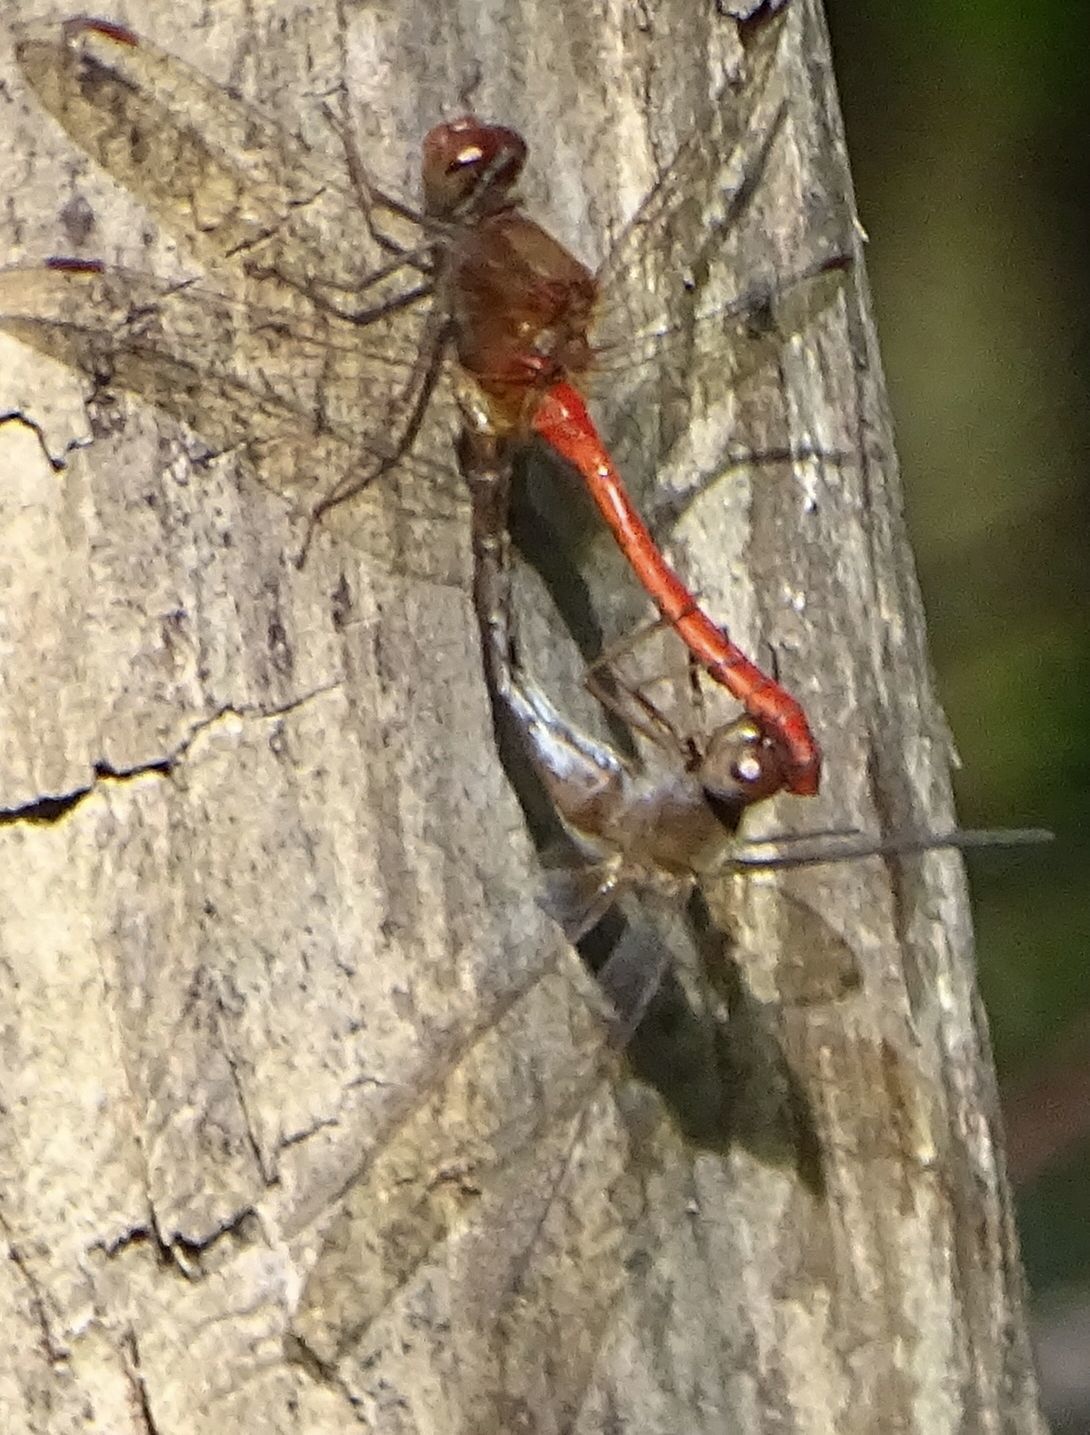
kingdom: Animalia
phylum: Arthropoda
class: Insecta
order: Odonata
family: Libellulidae
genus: Sympetrum
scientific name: Sympetrum vicinum
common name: Autumn meadowhawk
